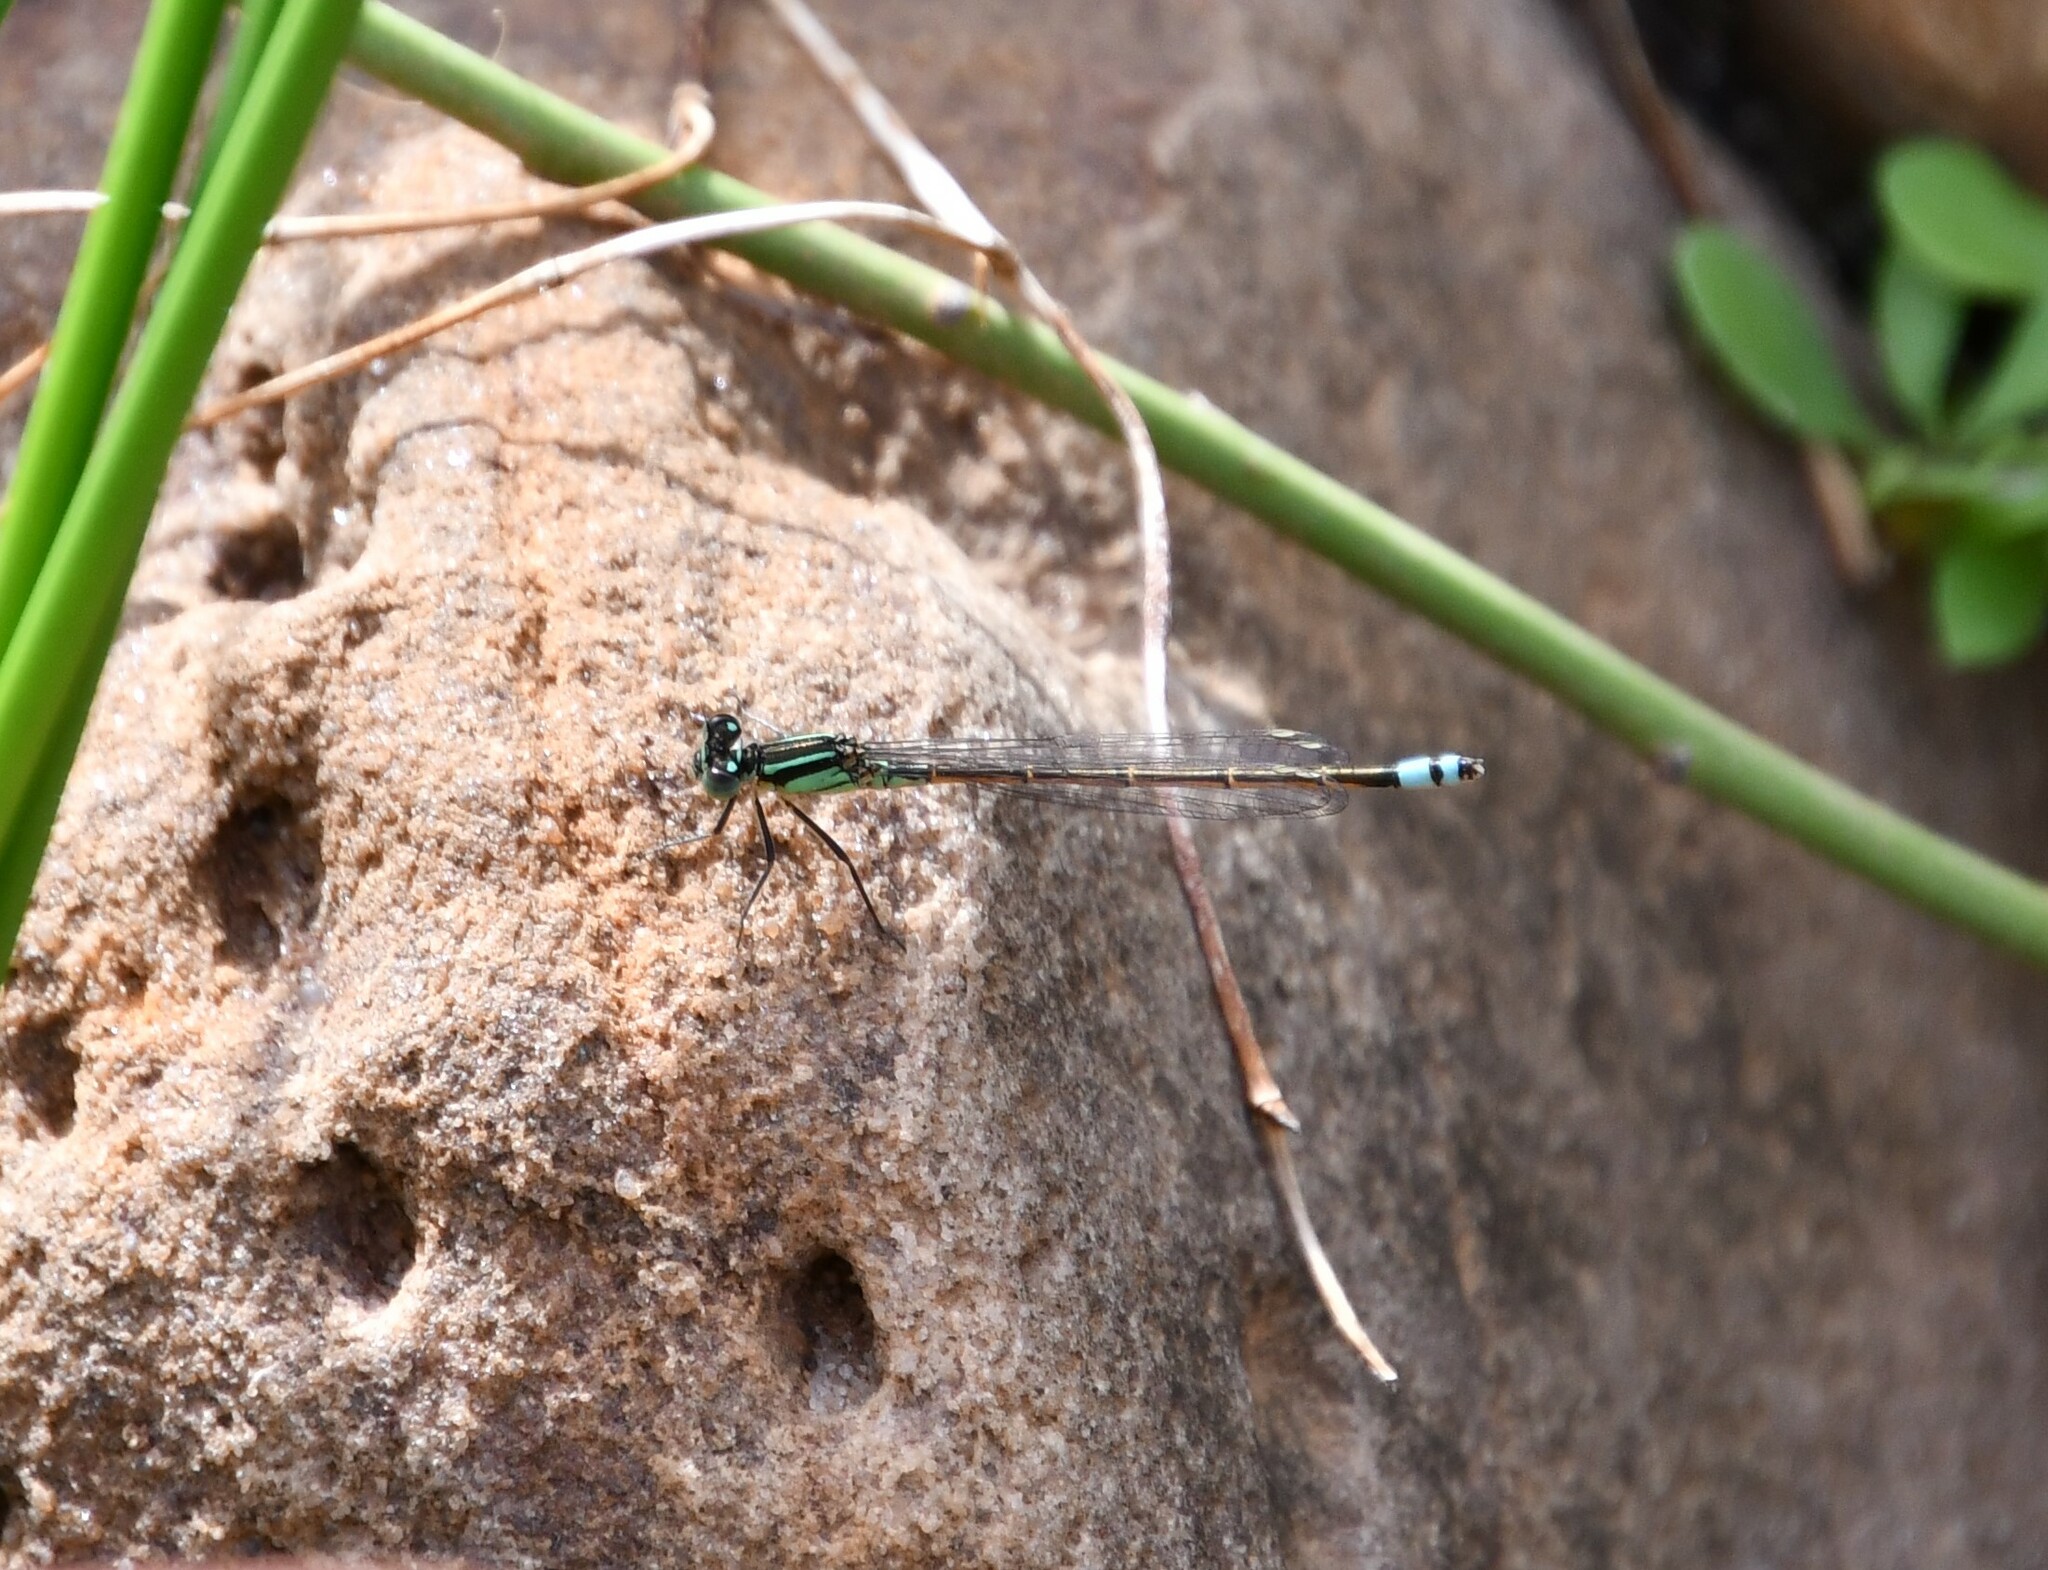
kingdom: Animalia
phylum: Arthropoda
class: Insecta
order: Odonata
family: Coenagrionidae
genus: Ischnura
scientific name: Ischnura heterosticta
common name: Common bluetail
